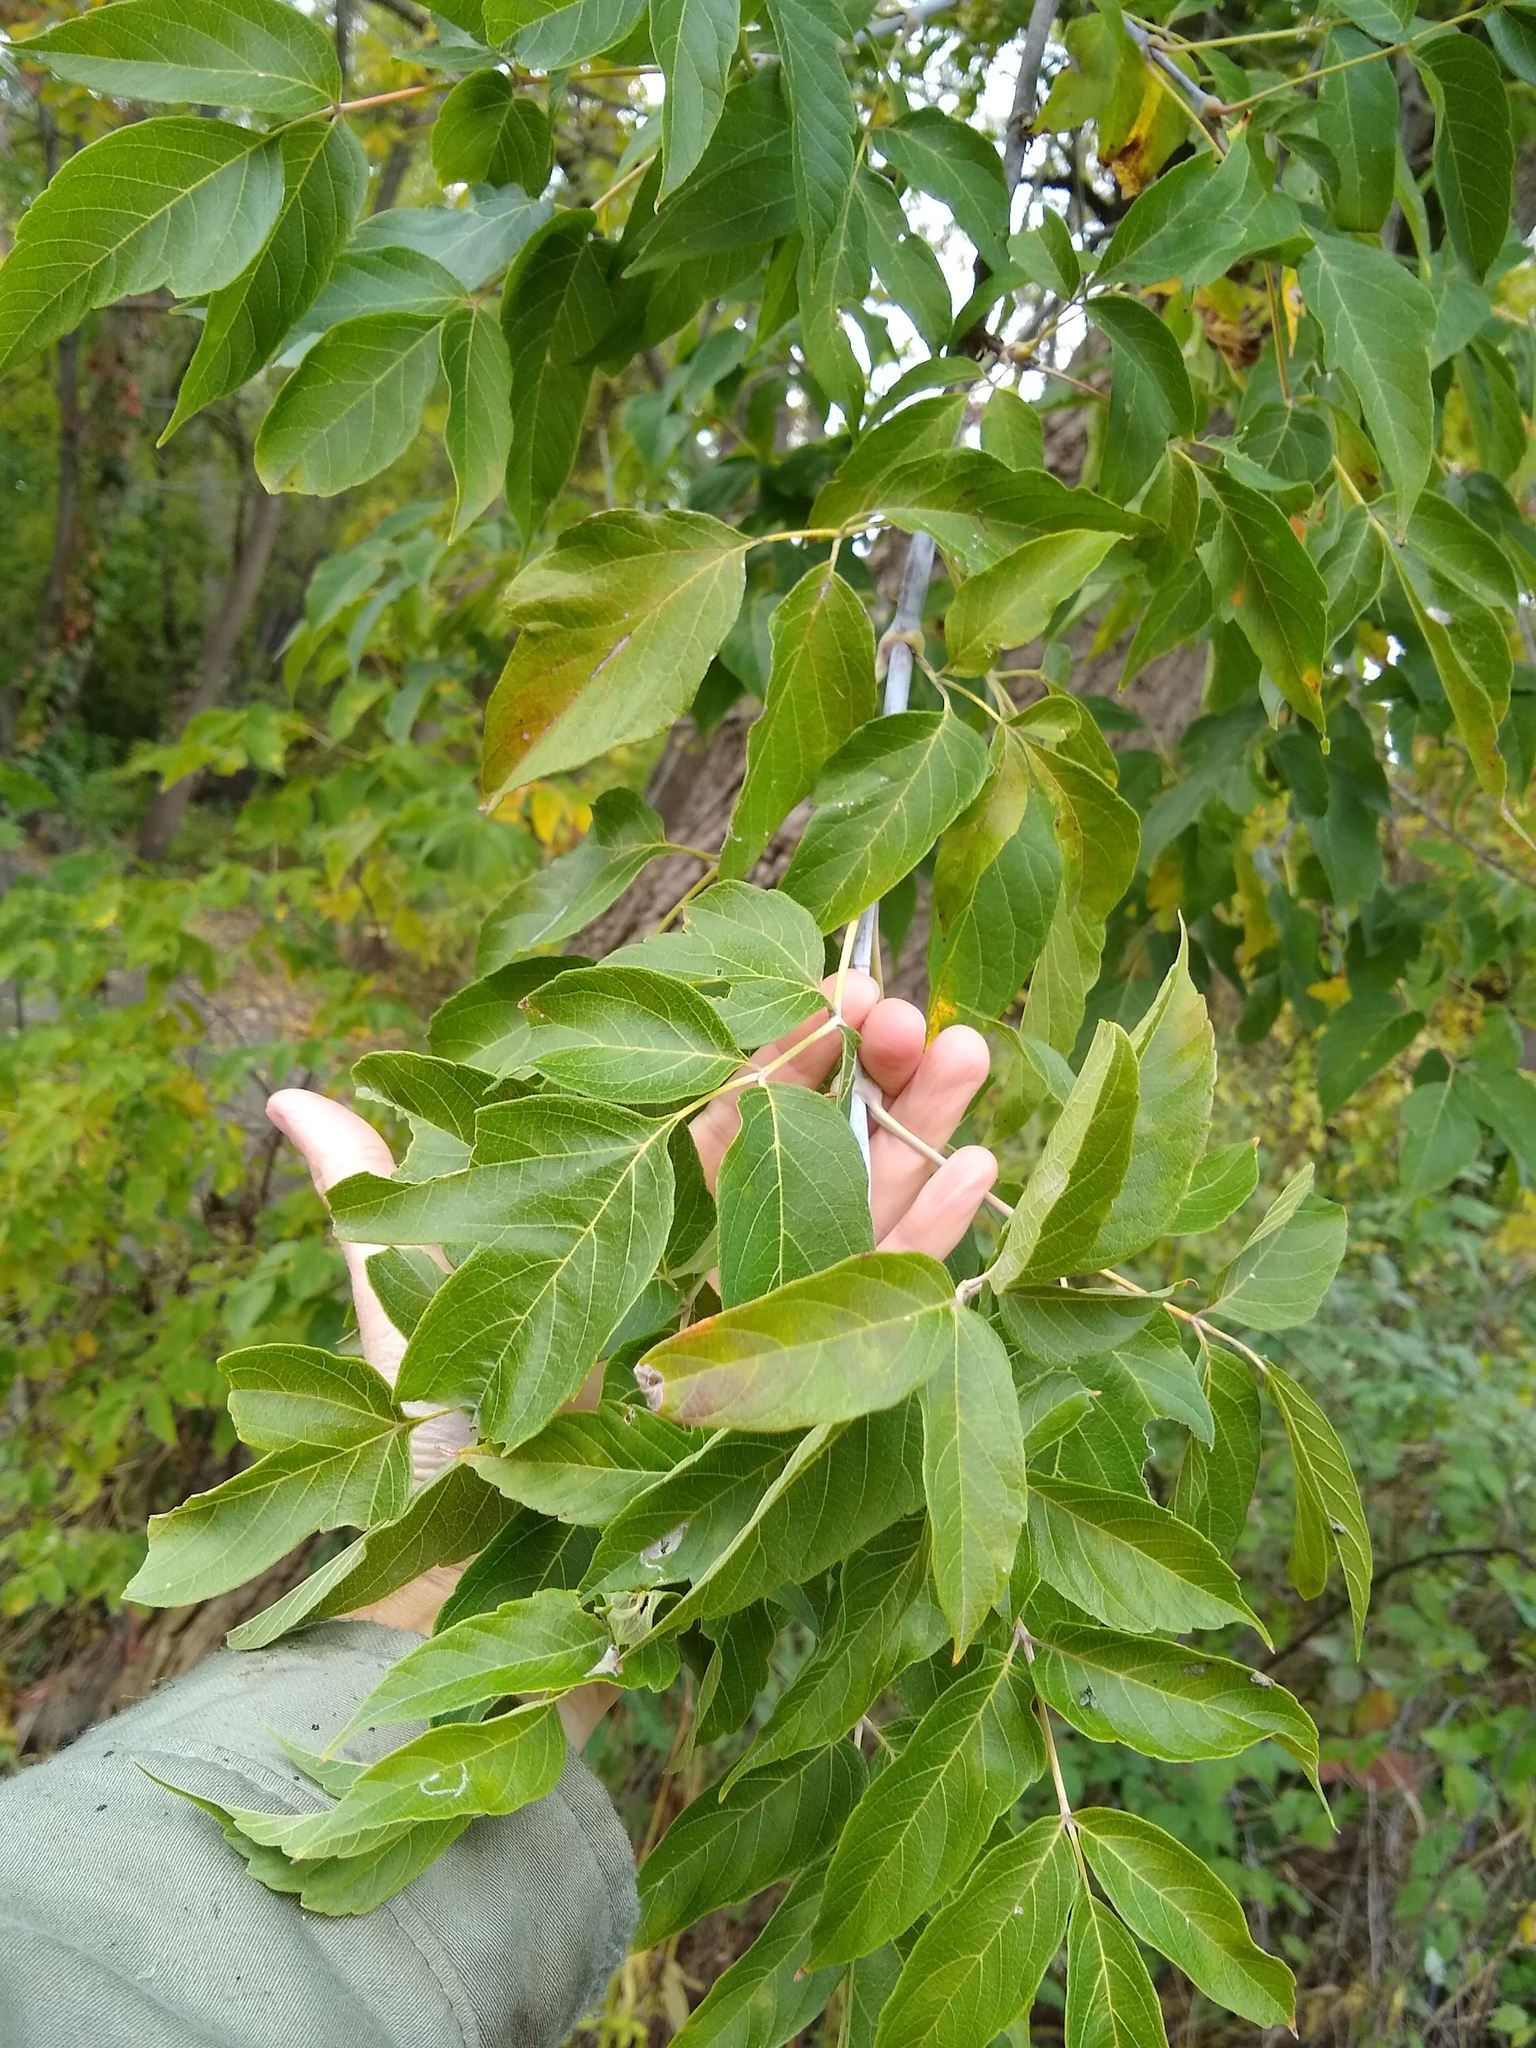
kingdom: Plantae
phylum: Tracheophyta
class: Magnoliopsida
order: Sapindales
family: Sapindaceae
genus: Acer
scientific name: Acer negundo
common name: Ashleaf maple
